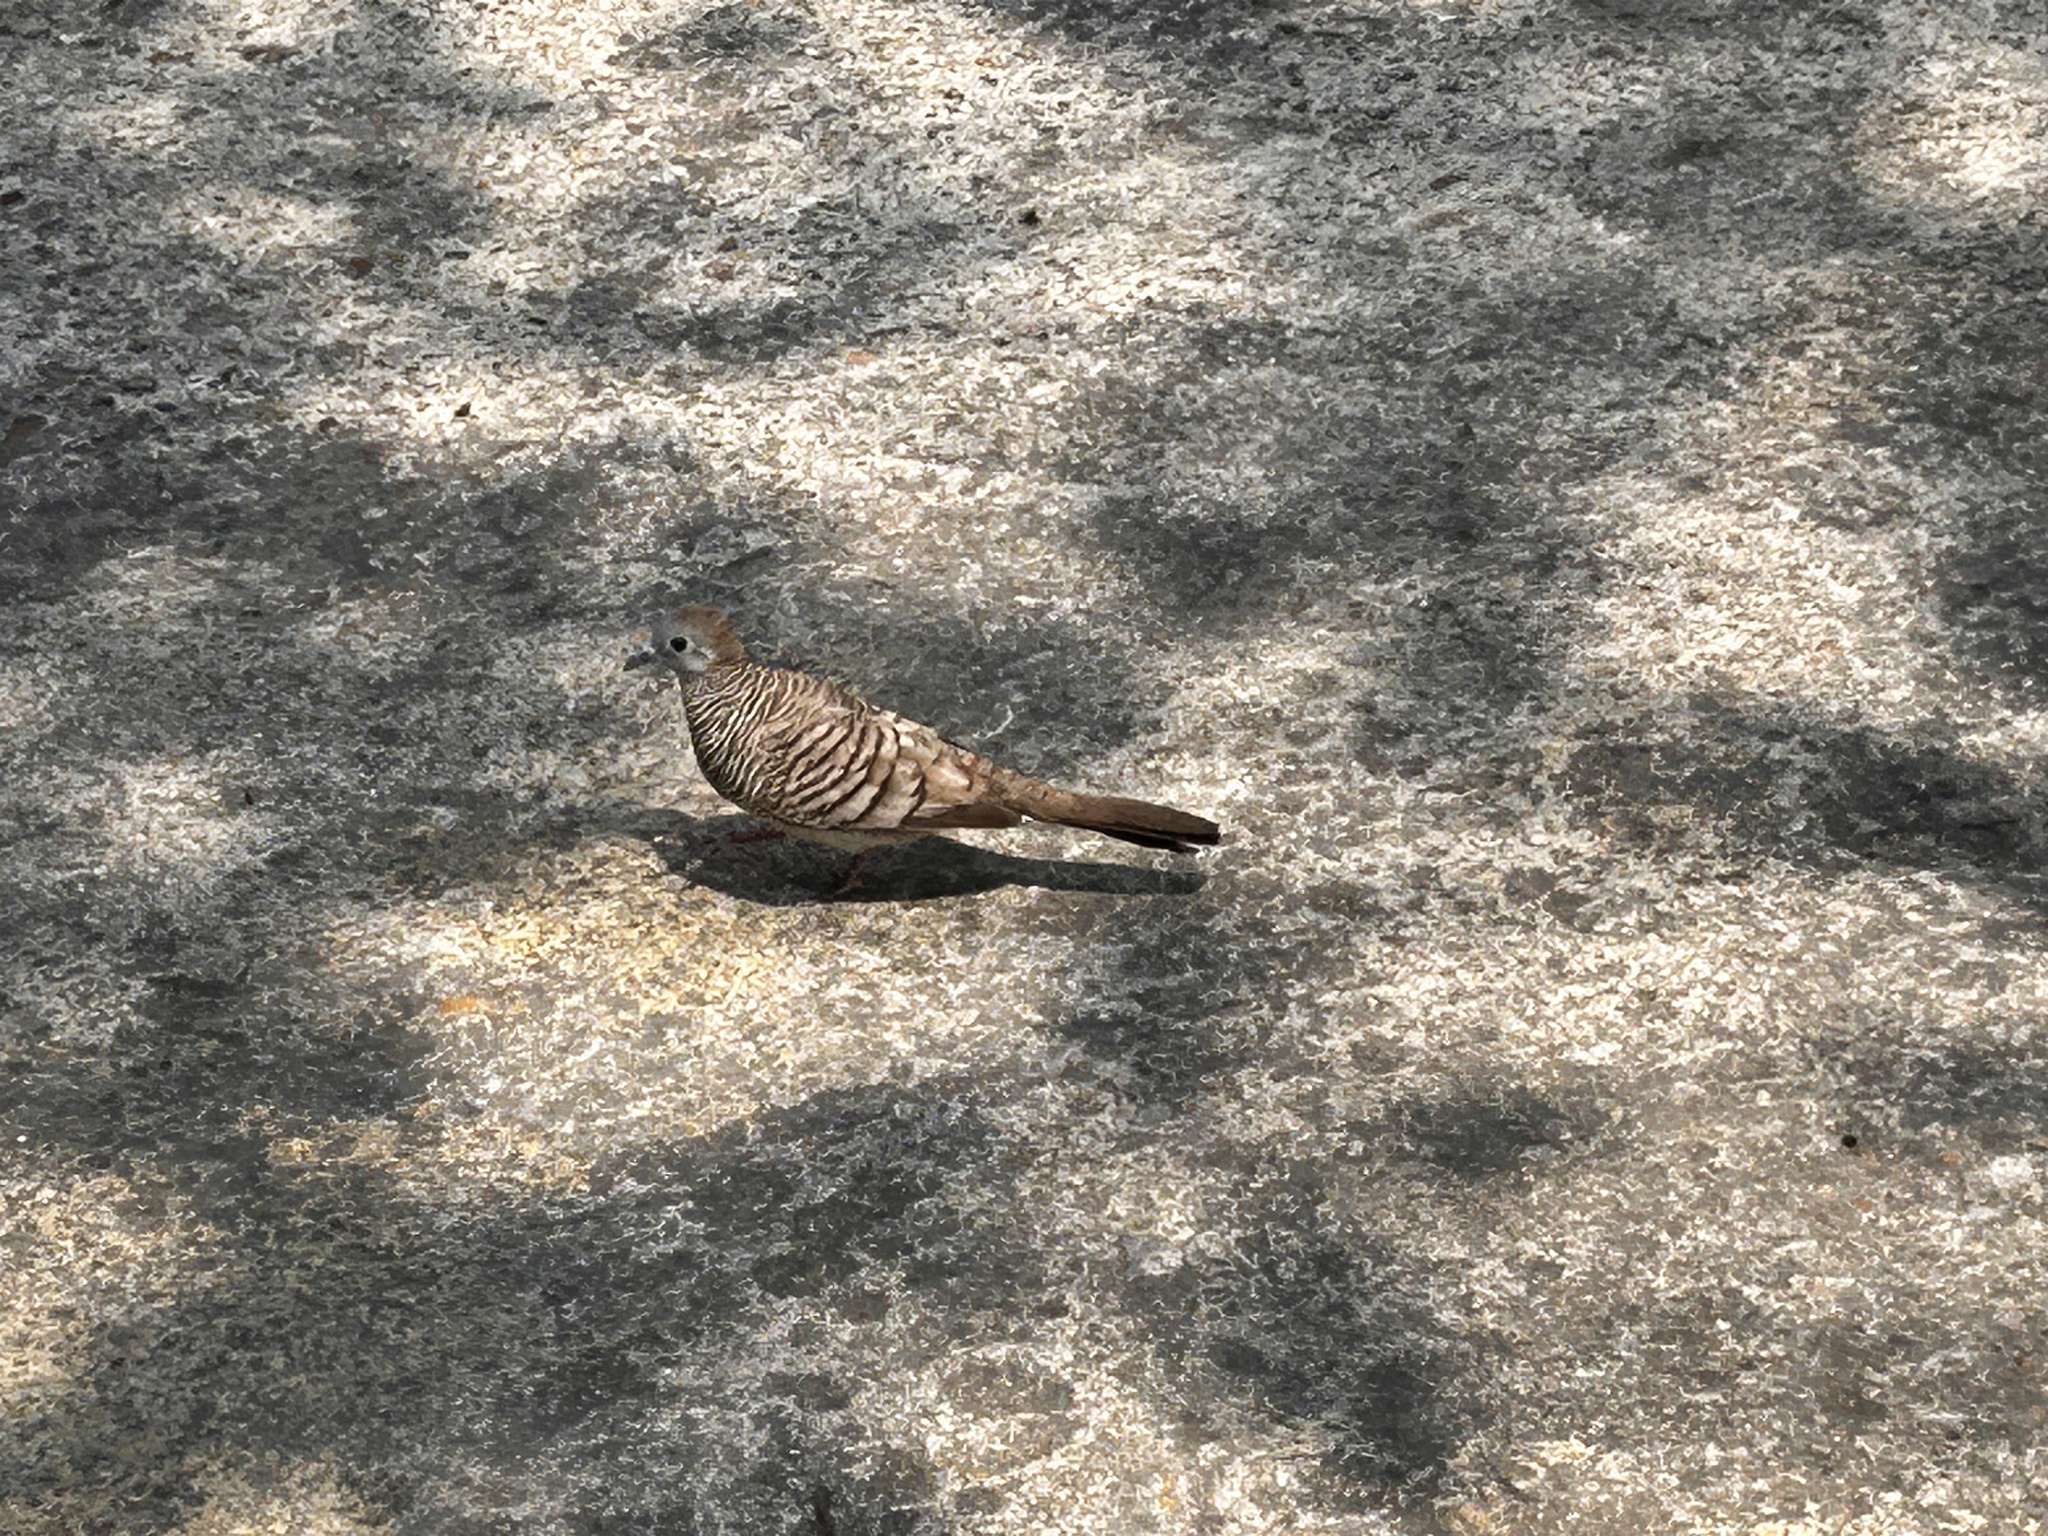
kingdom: Animalia
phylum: Chordata
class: Aves
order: Columbiformes
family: Columbidae
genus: Geopelia
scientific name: Geopelia striata
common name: Zebra dove
